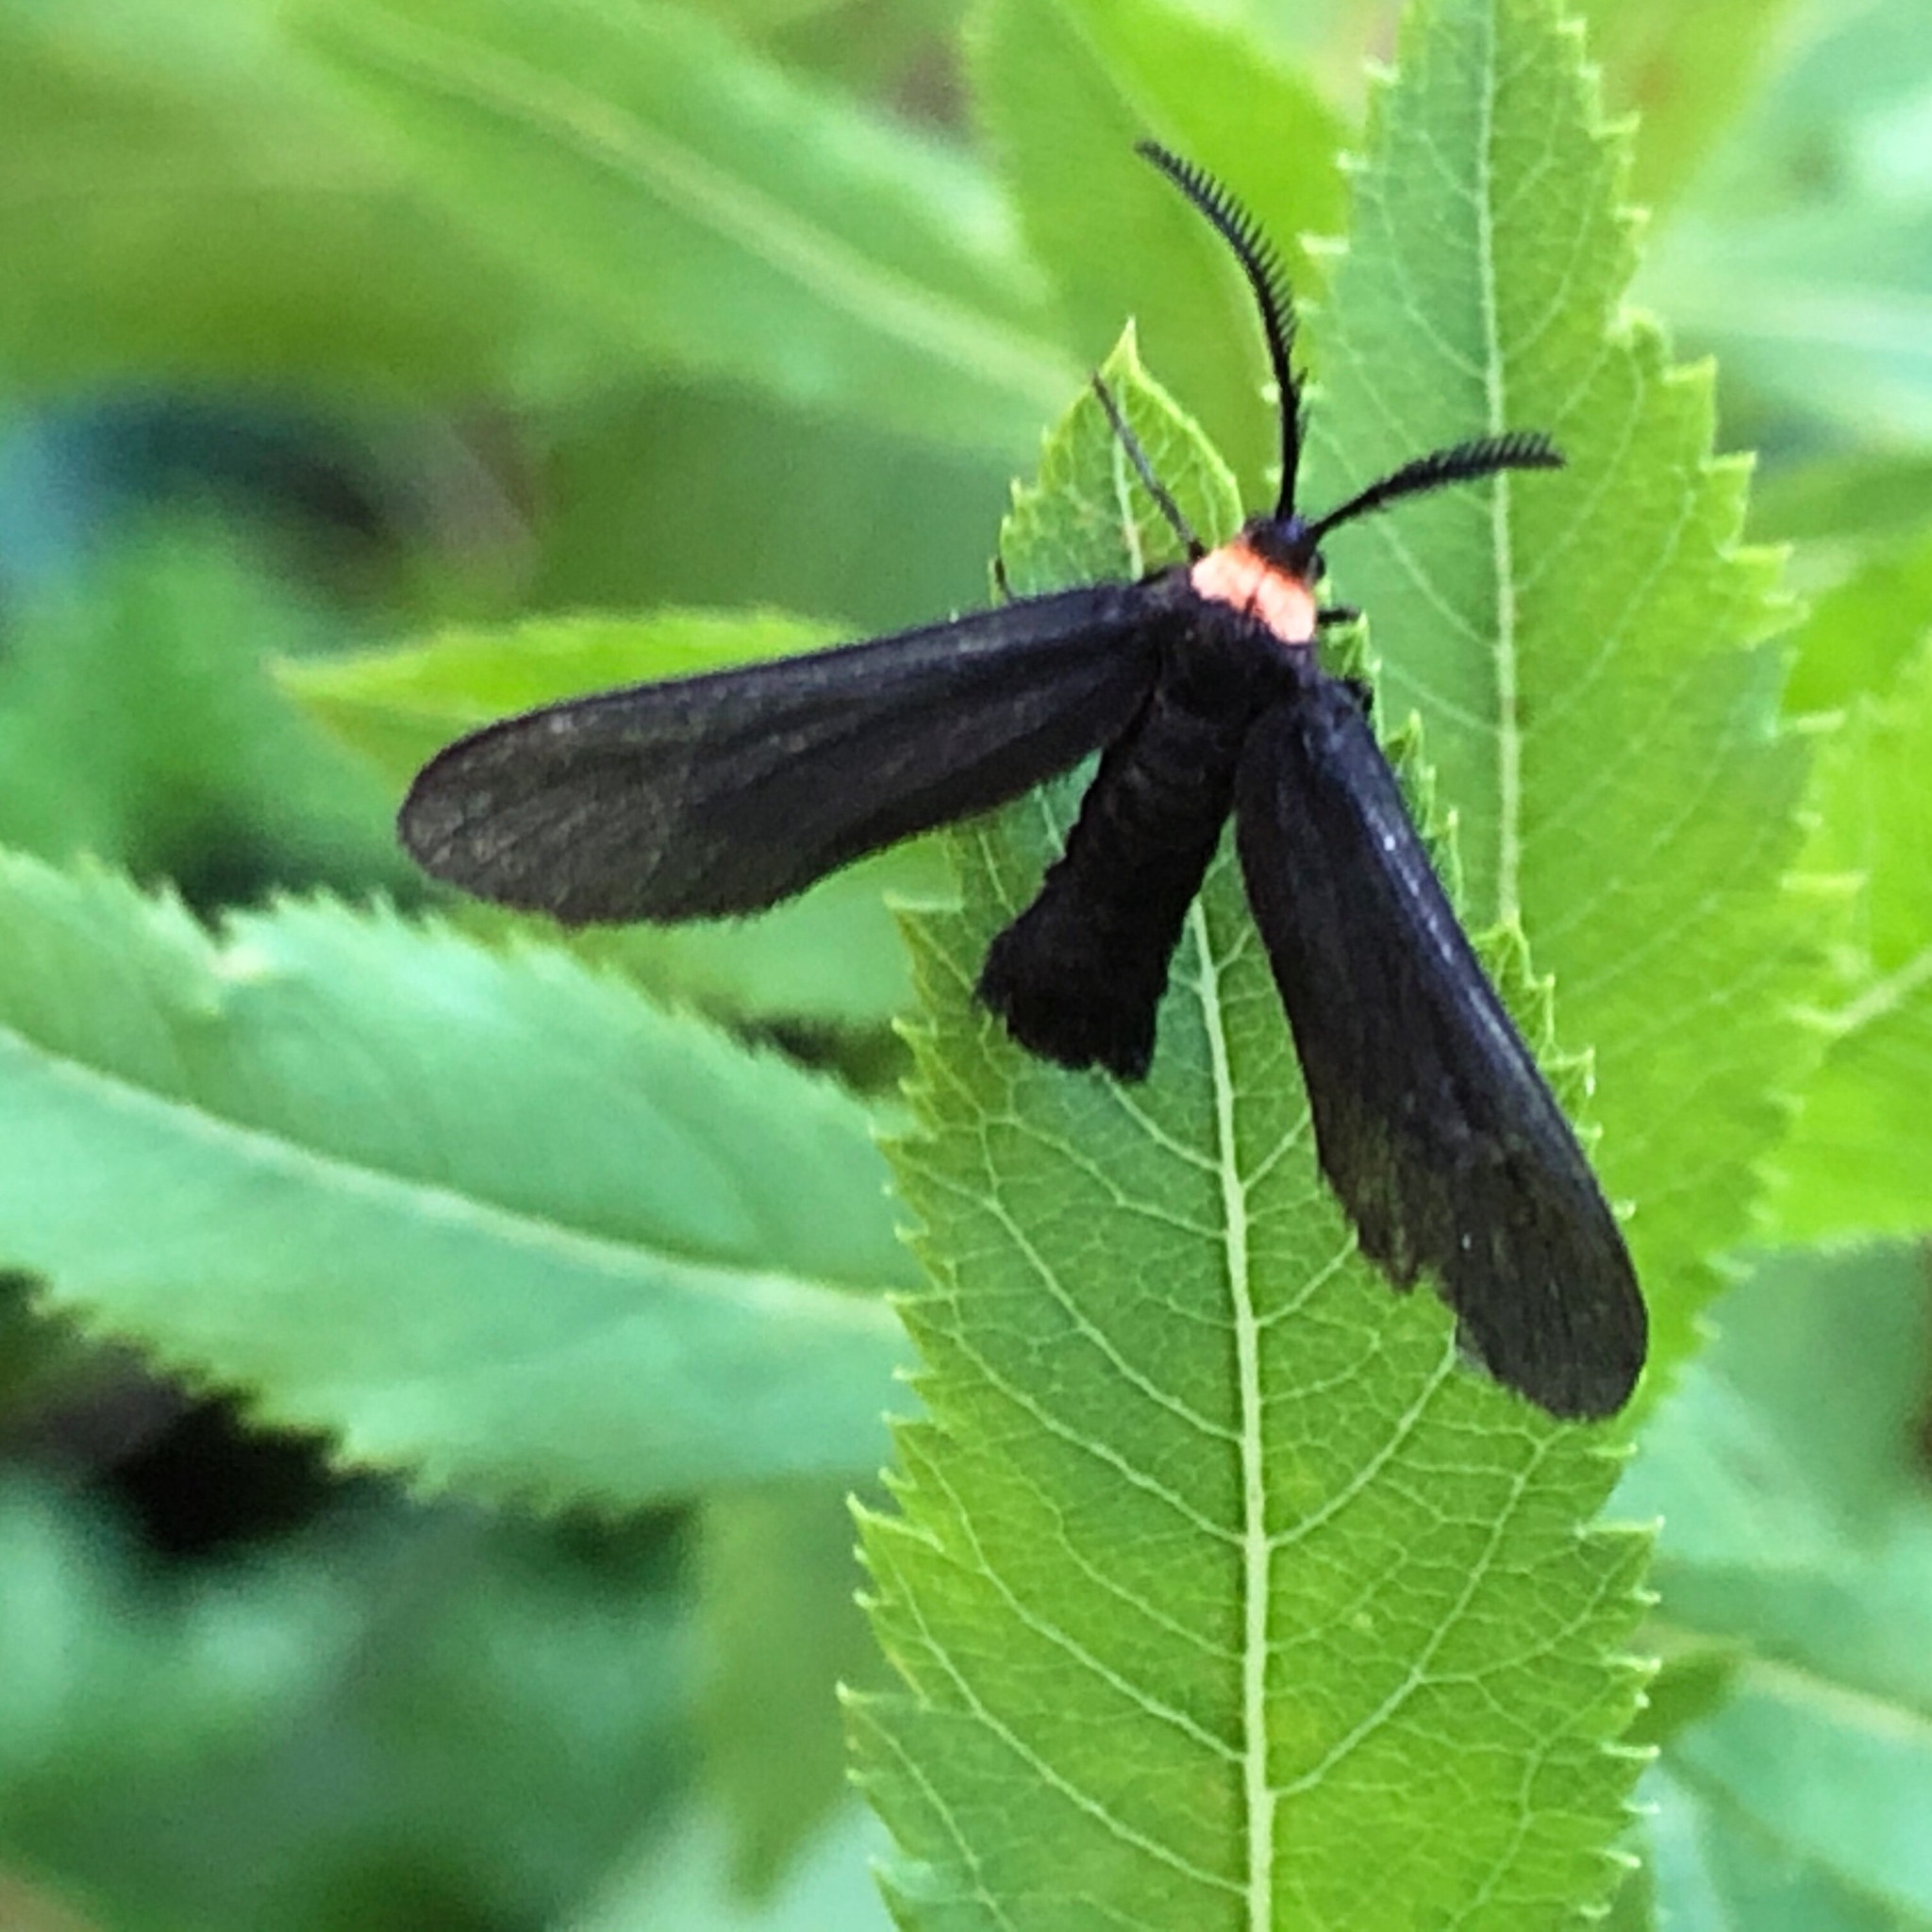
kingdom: Animalia
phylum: Arthropoda
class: Insecta
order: Lepidoptera
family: Zygaenidae
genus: Harrisina
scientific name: Harrisina americana
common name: Grapeleaf skeletonizer moth
